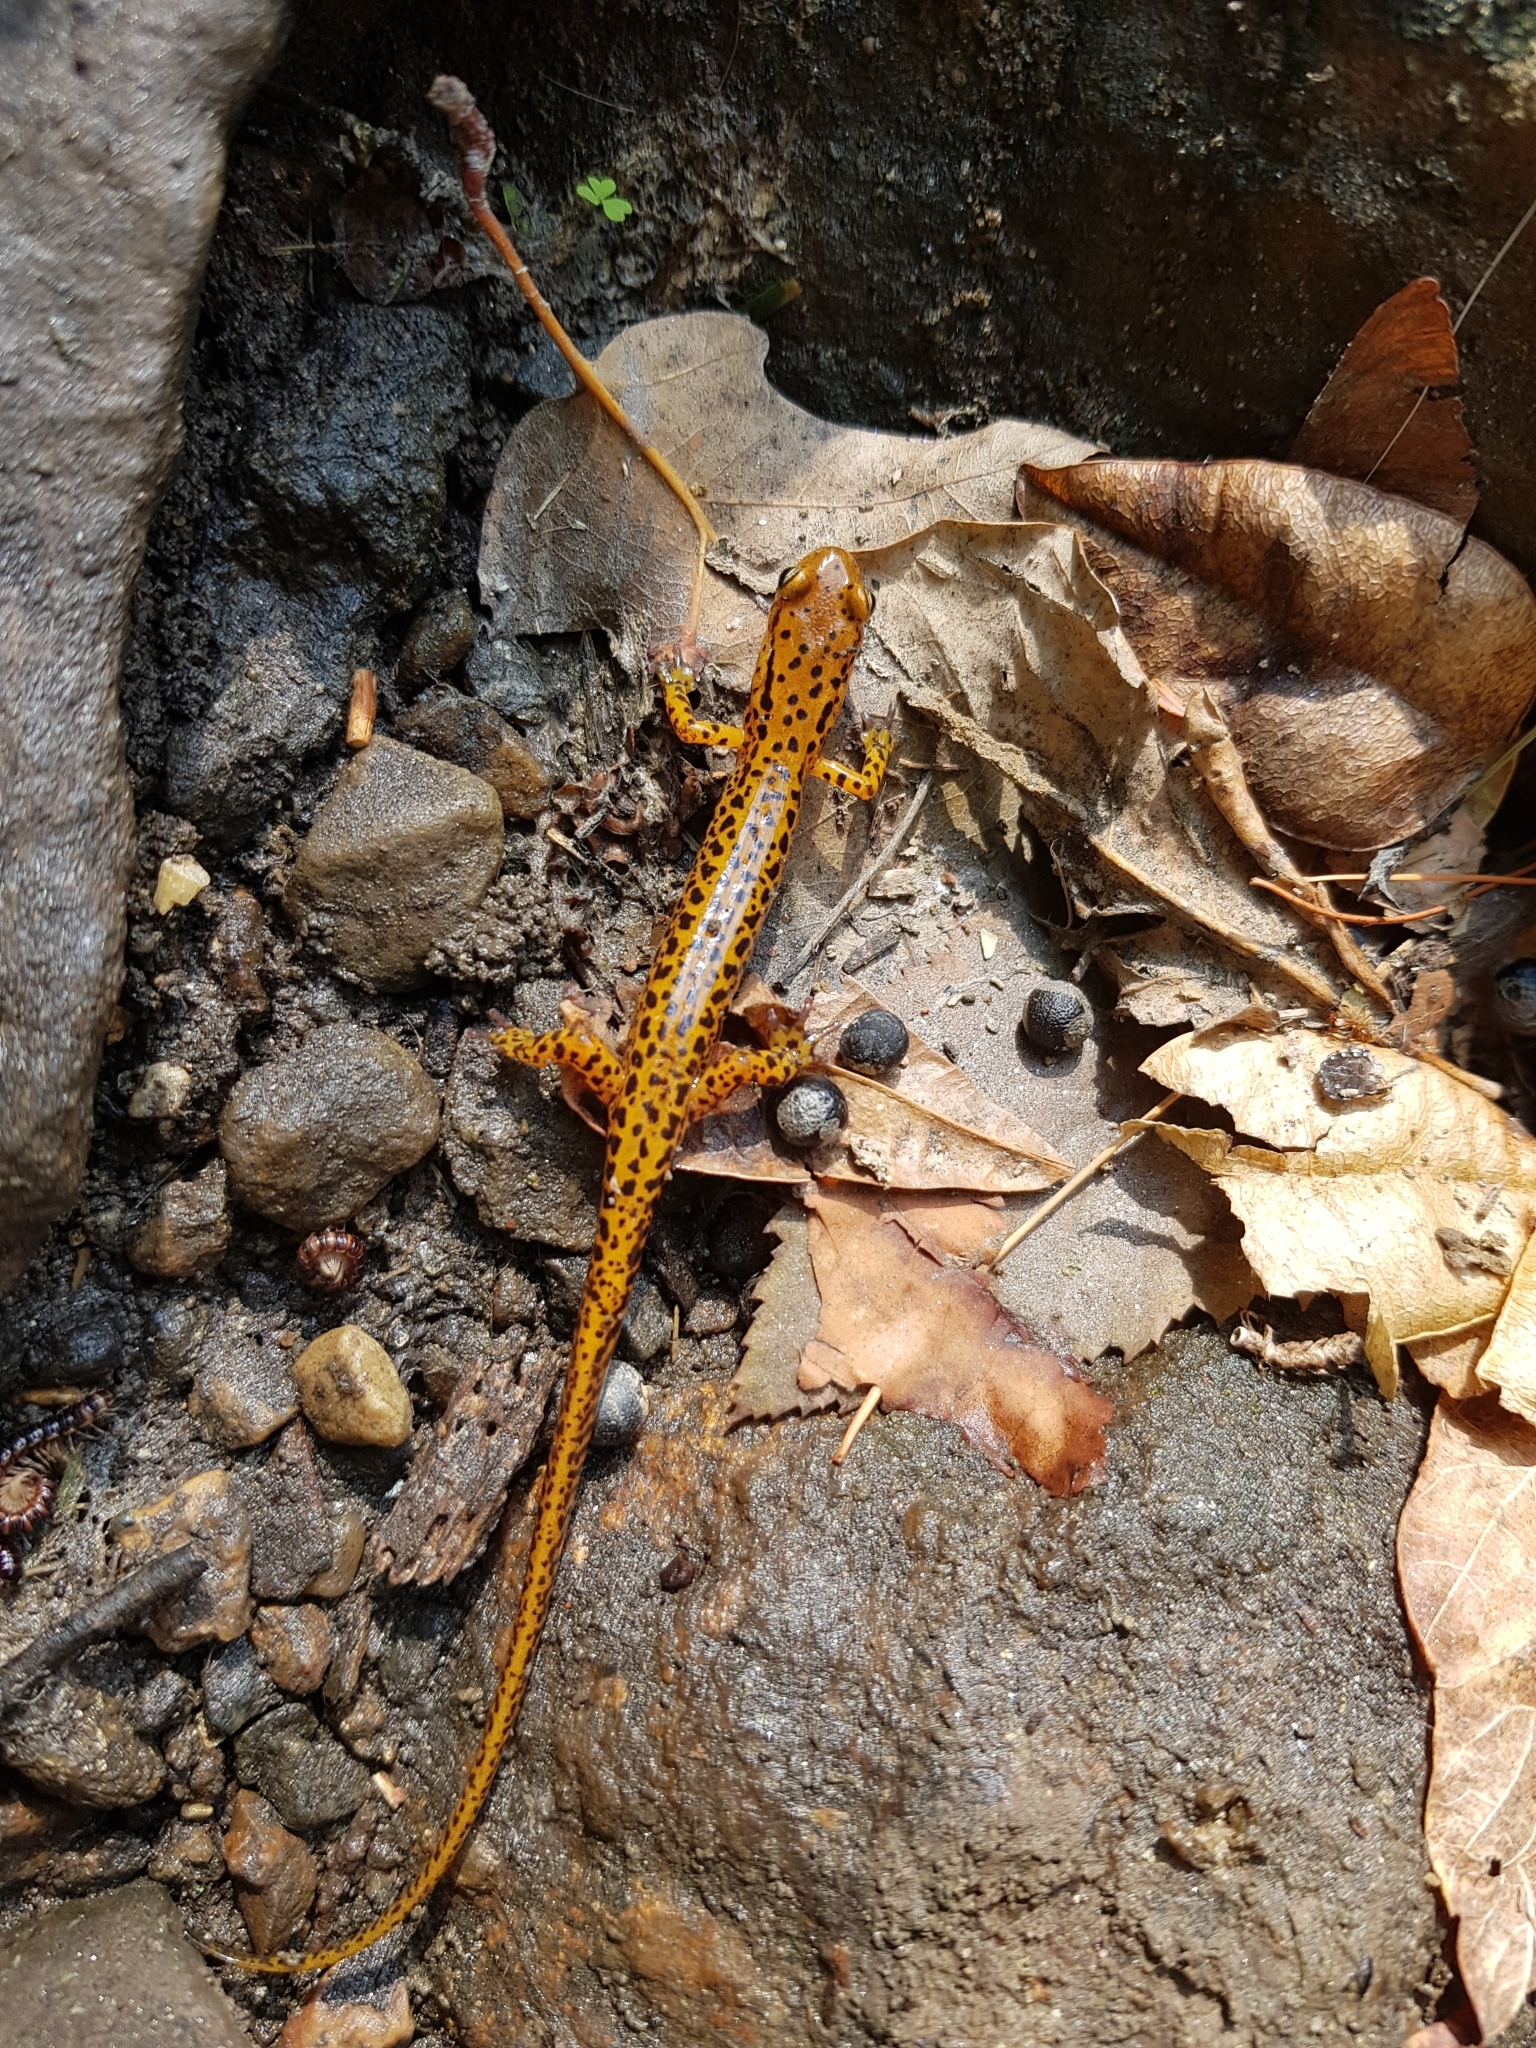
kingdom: Animalia
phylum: Chordata
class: Amphibia
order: Caudata
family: Plethodontidae
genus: Eurycea
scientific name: Eurycea longicauda
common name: Long-tailed salamander
